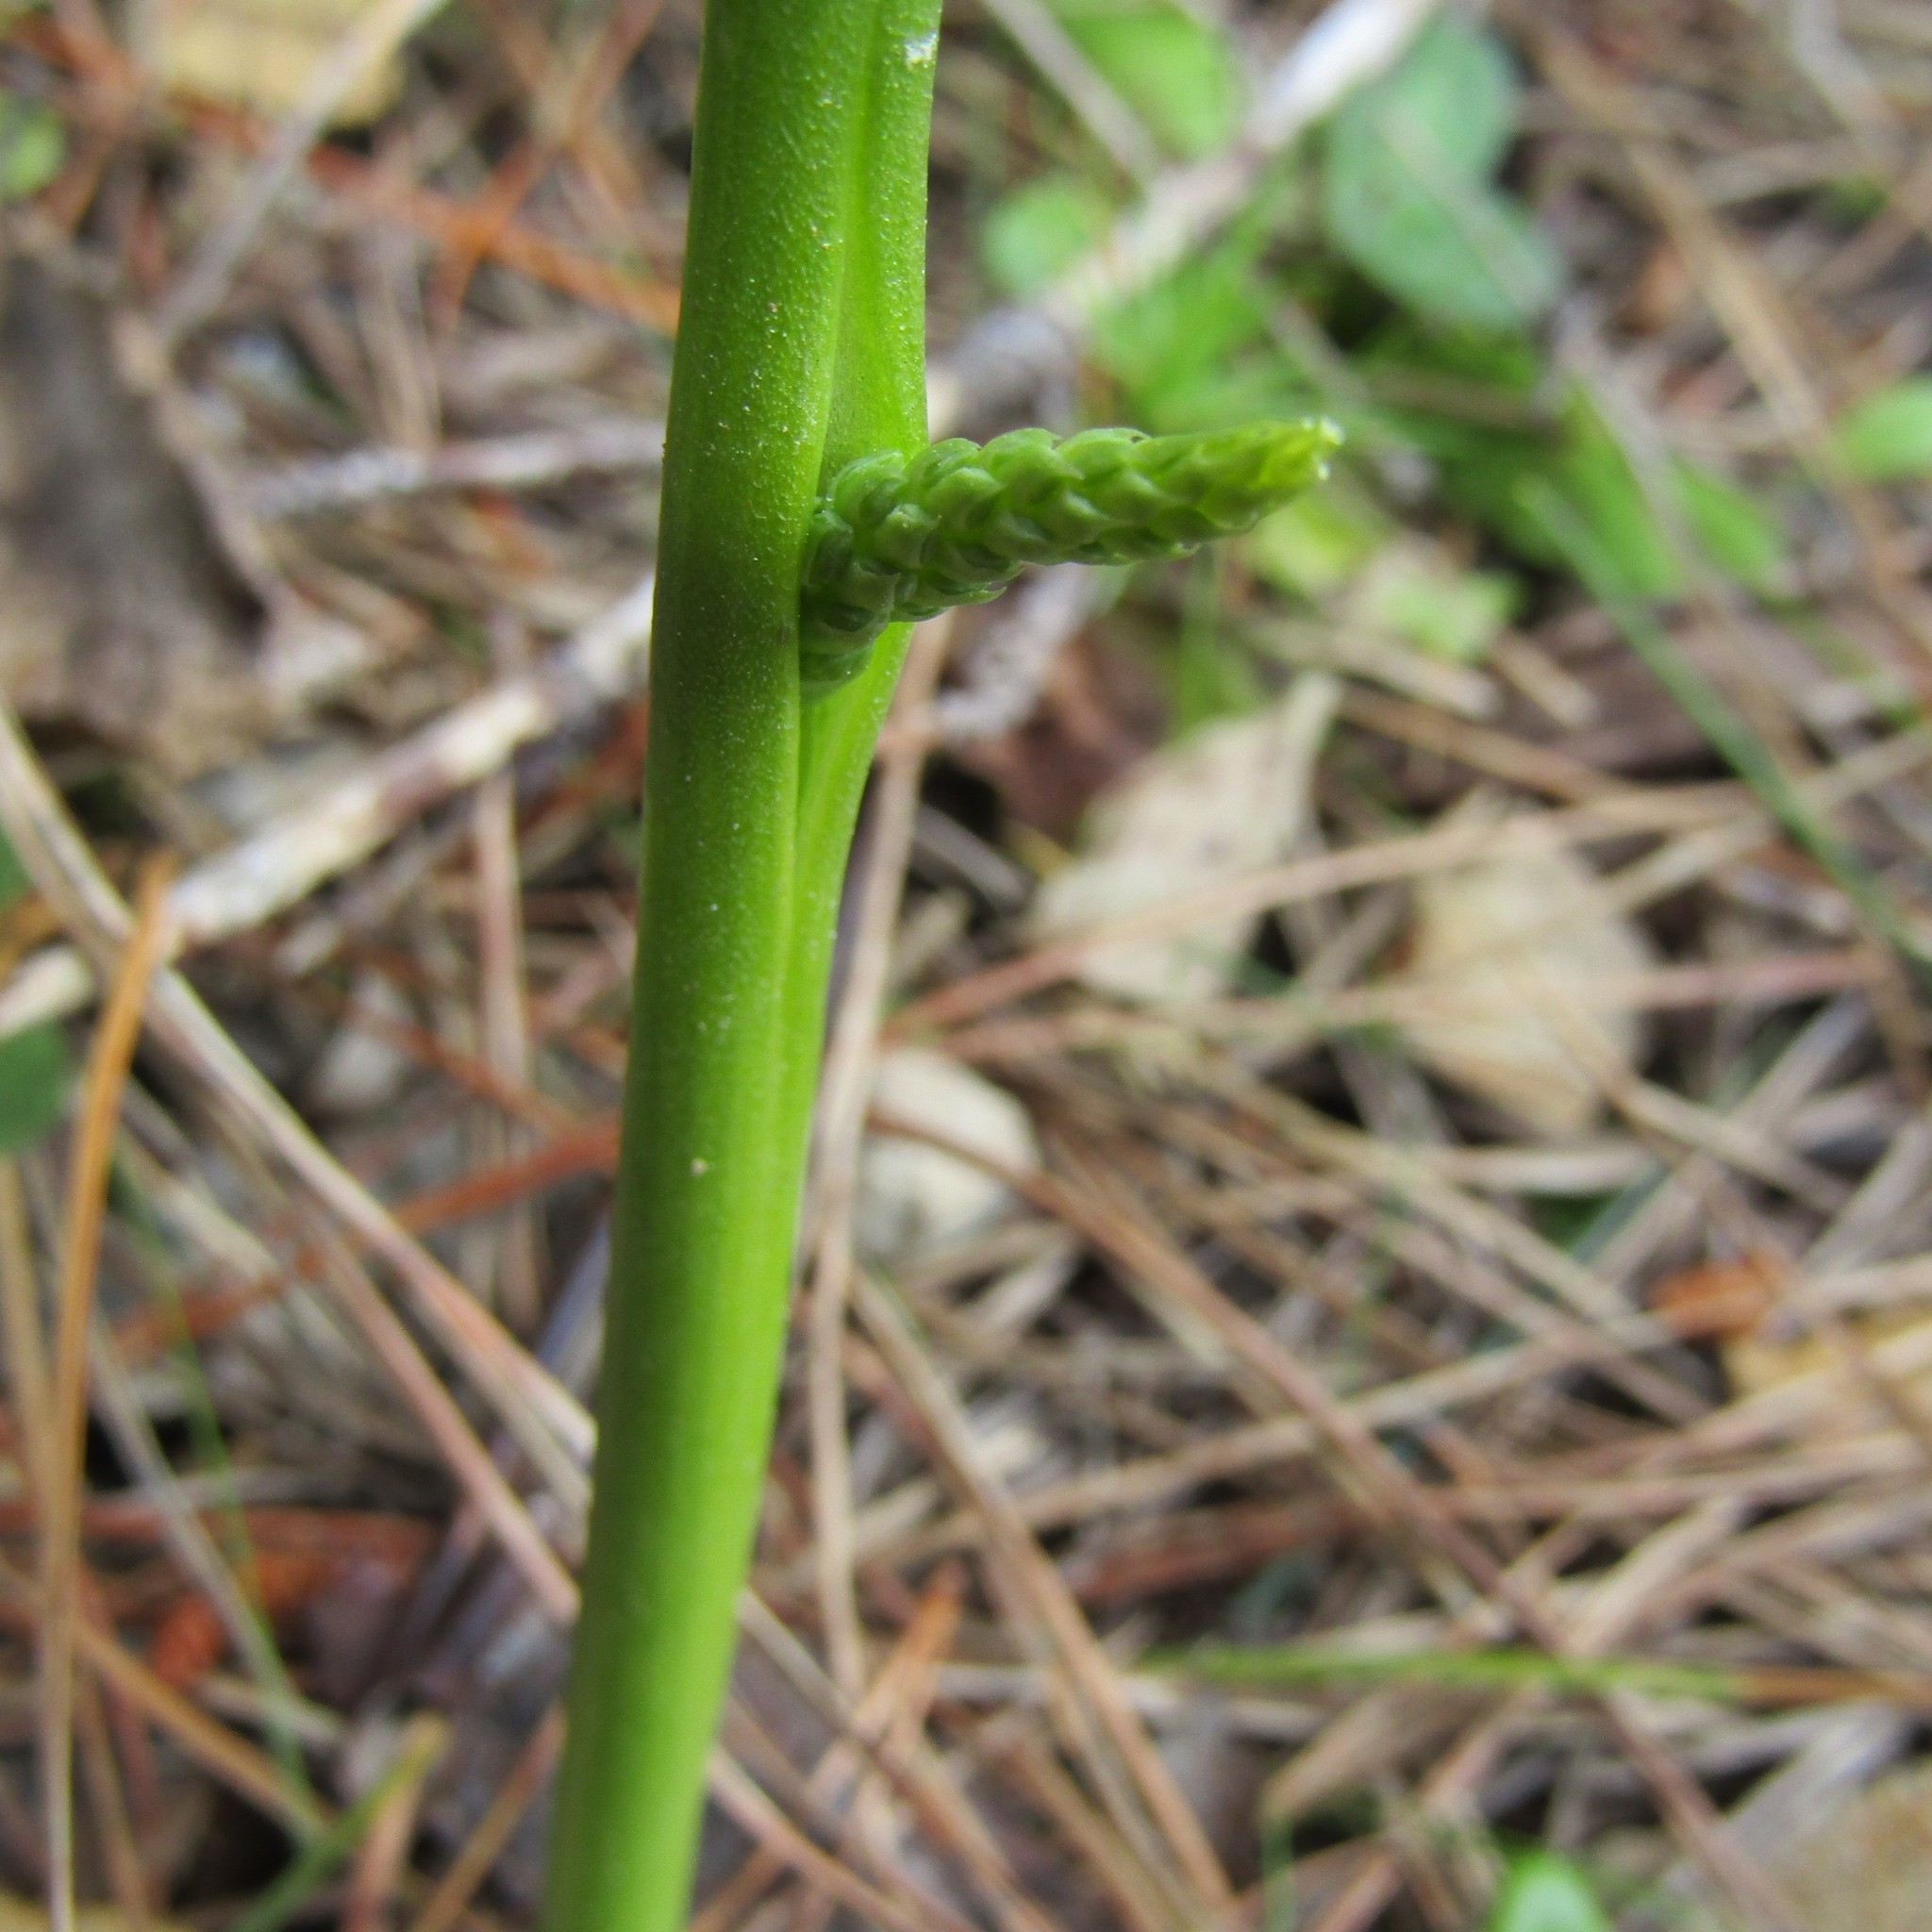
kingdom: Plantae
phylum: Tracheophyta
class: Liliopsida
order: Asparagales
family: Orchidaceae
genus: Microtis
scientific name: Microtis unifolia
